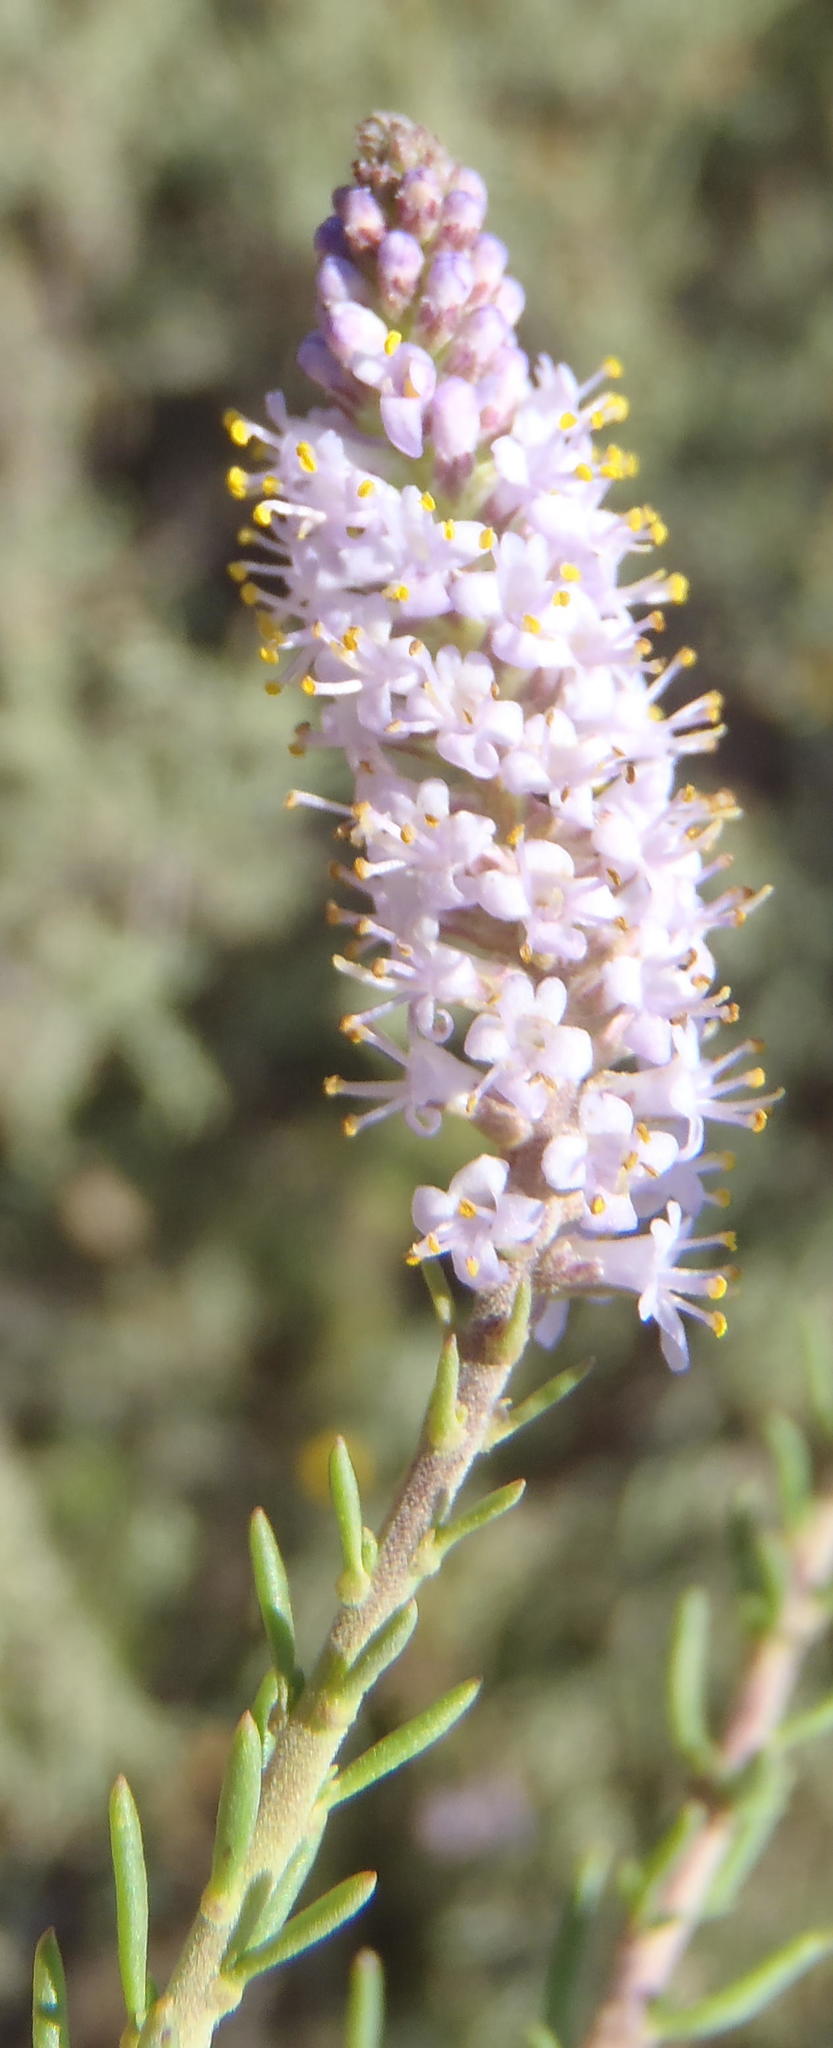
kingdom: Plantae
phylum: Tracheophyta
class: Magnoliopsida
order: Lamiales
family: Scrophulariaceae
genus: Selago
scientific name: Selago geniculata
